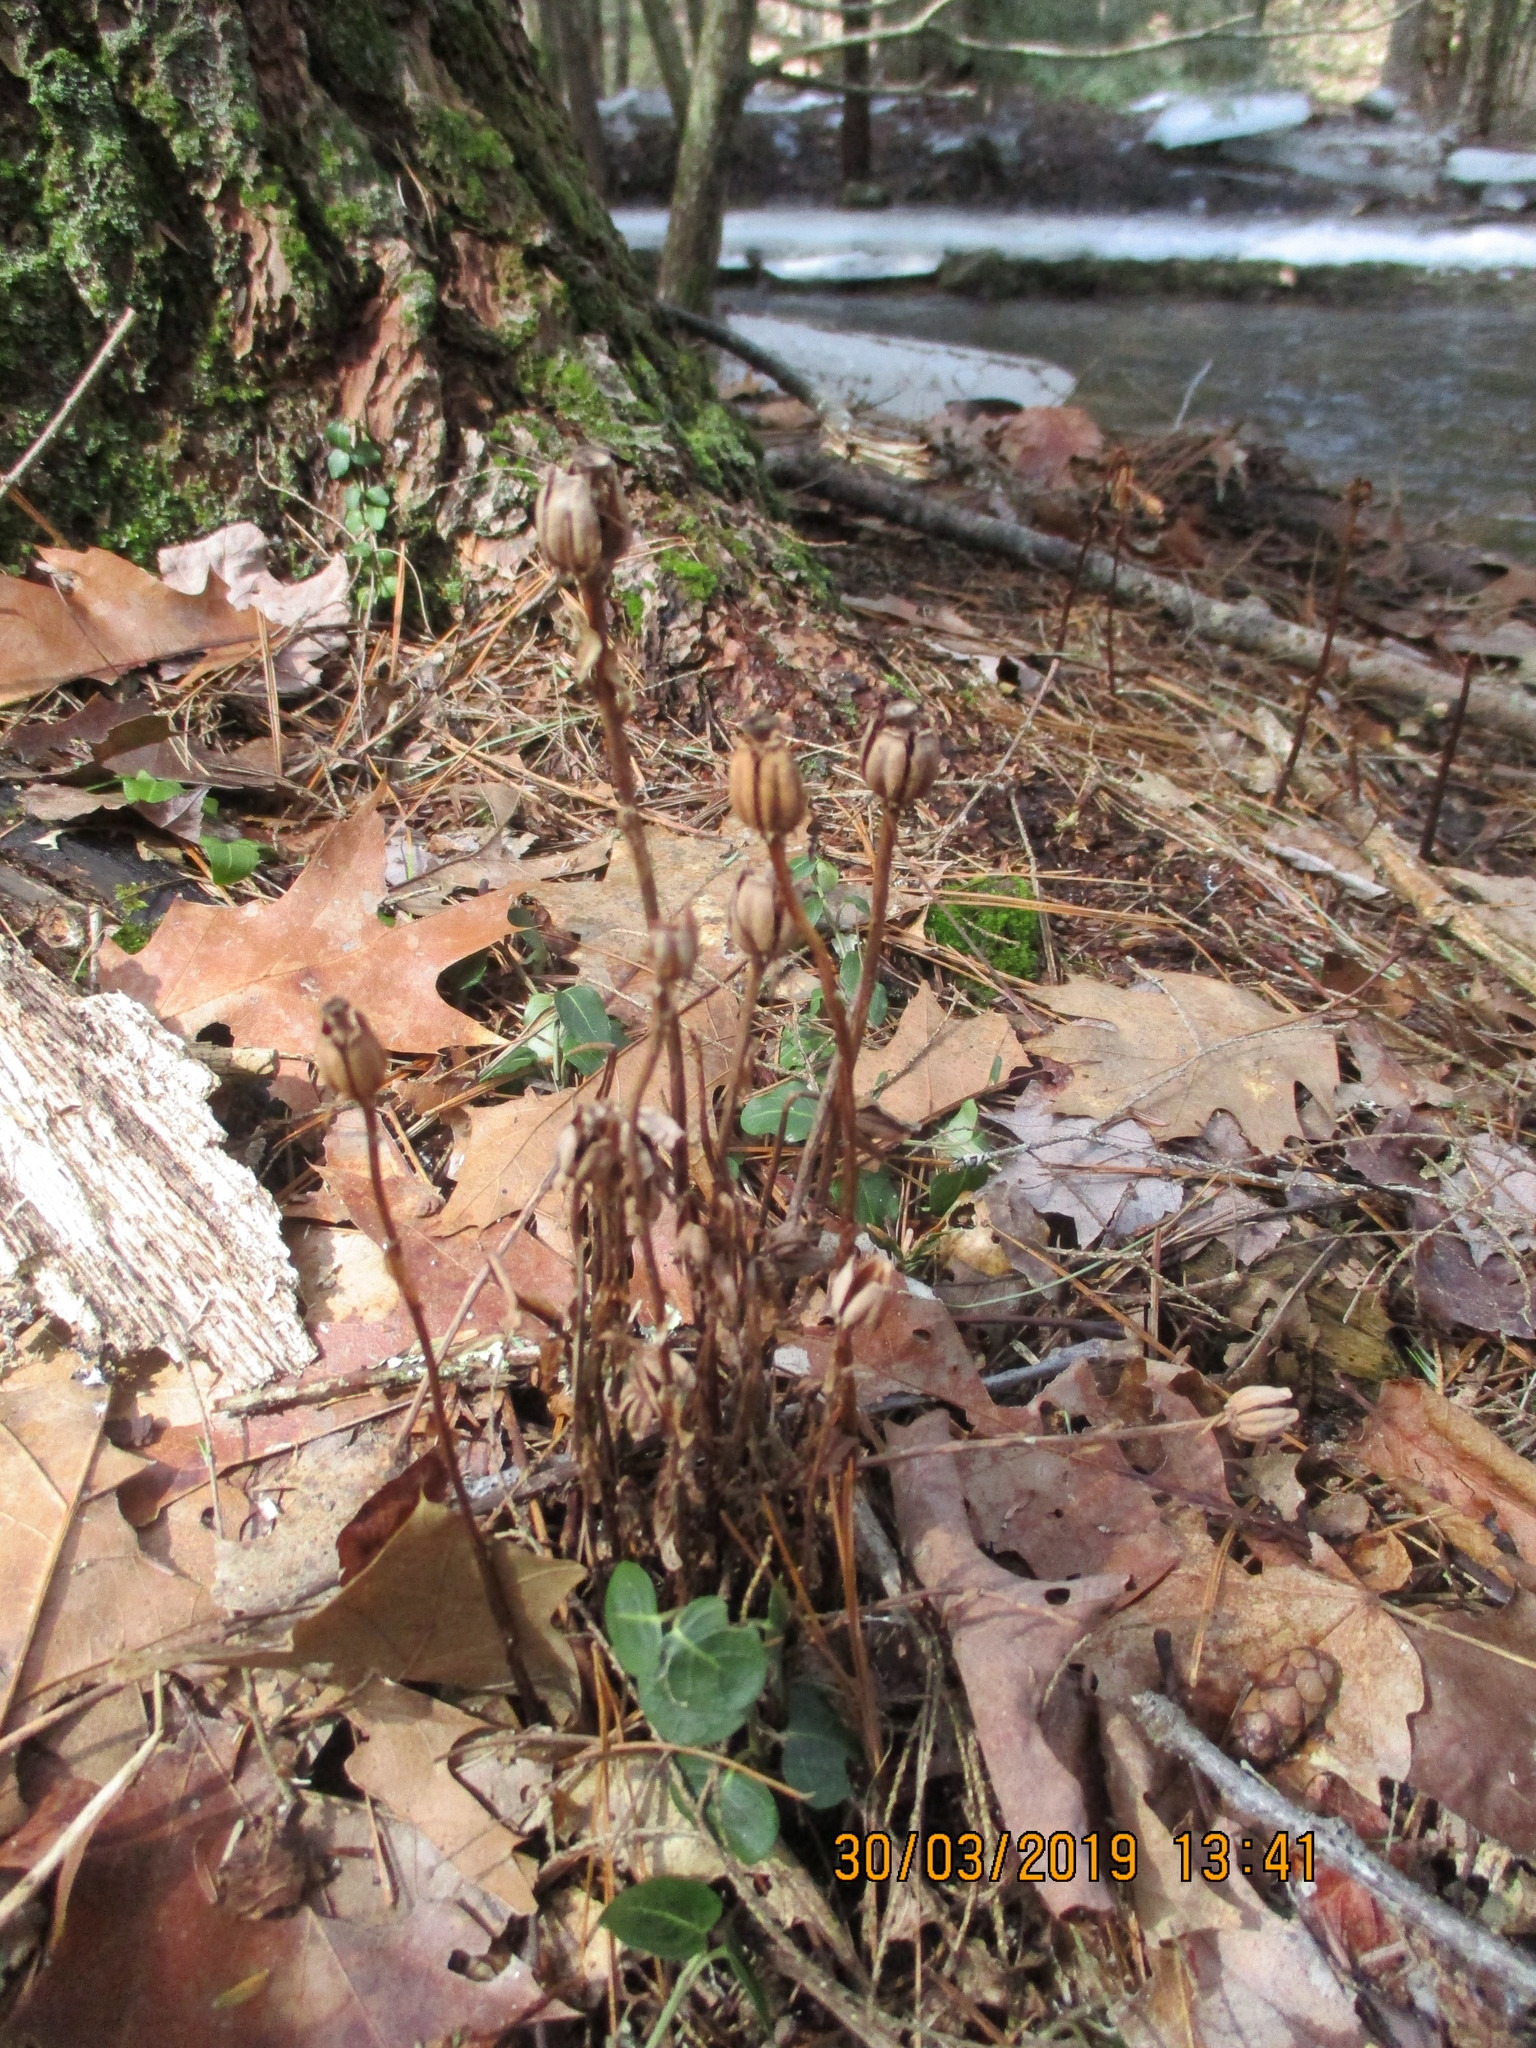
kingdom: Plantae
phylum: Tracheophyta
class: Magnoliopsida
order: Ericales
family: Ericaceae
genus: Monotropa
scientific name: Monotropa uniflora
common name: Convulsion root
